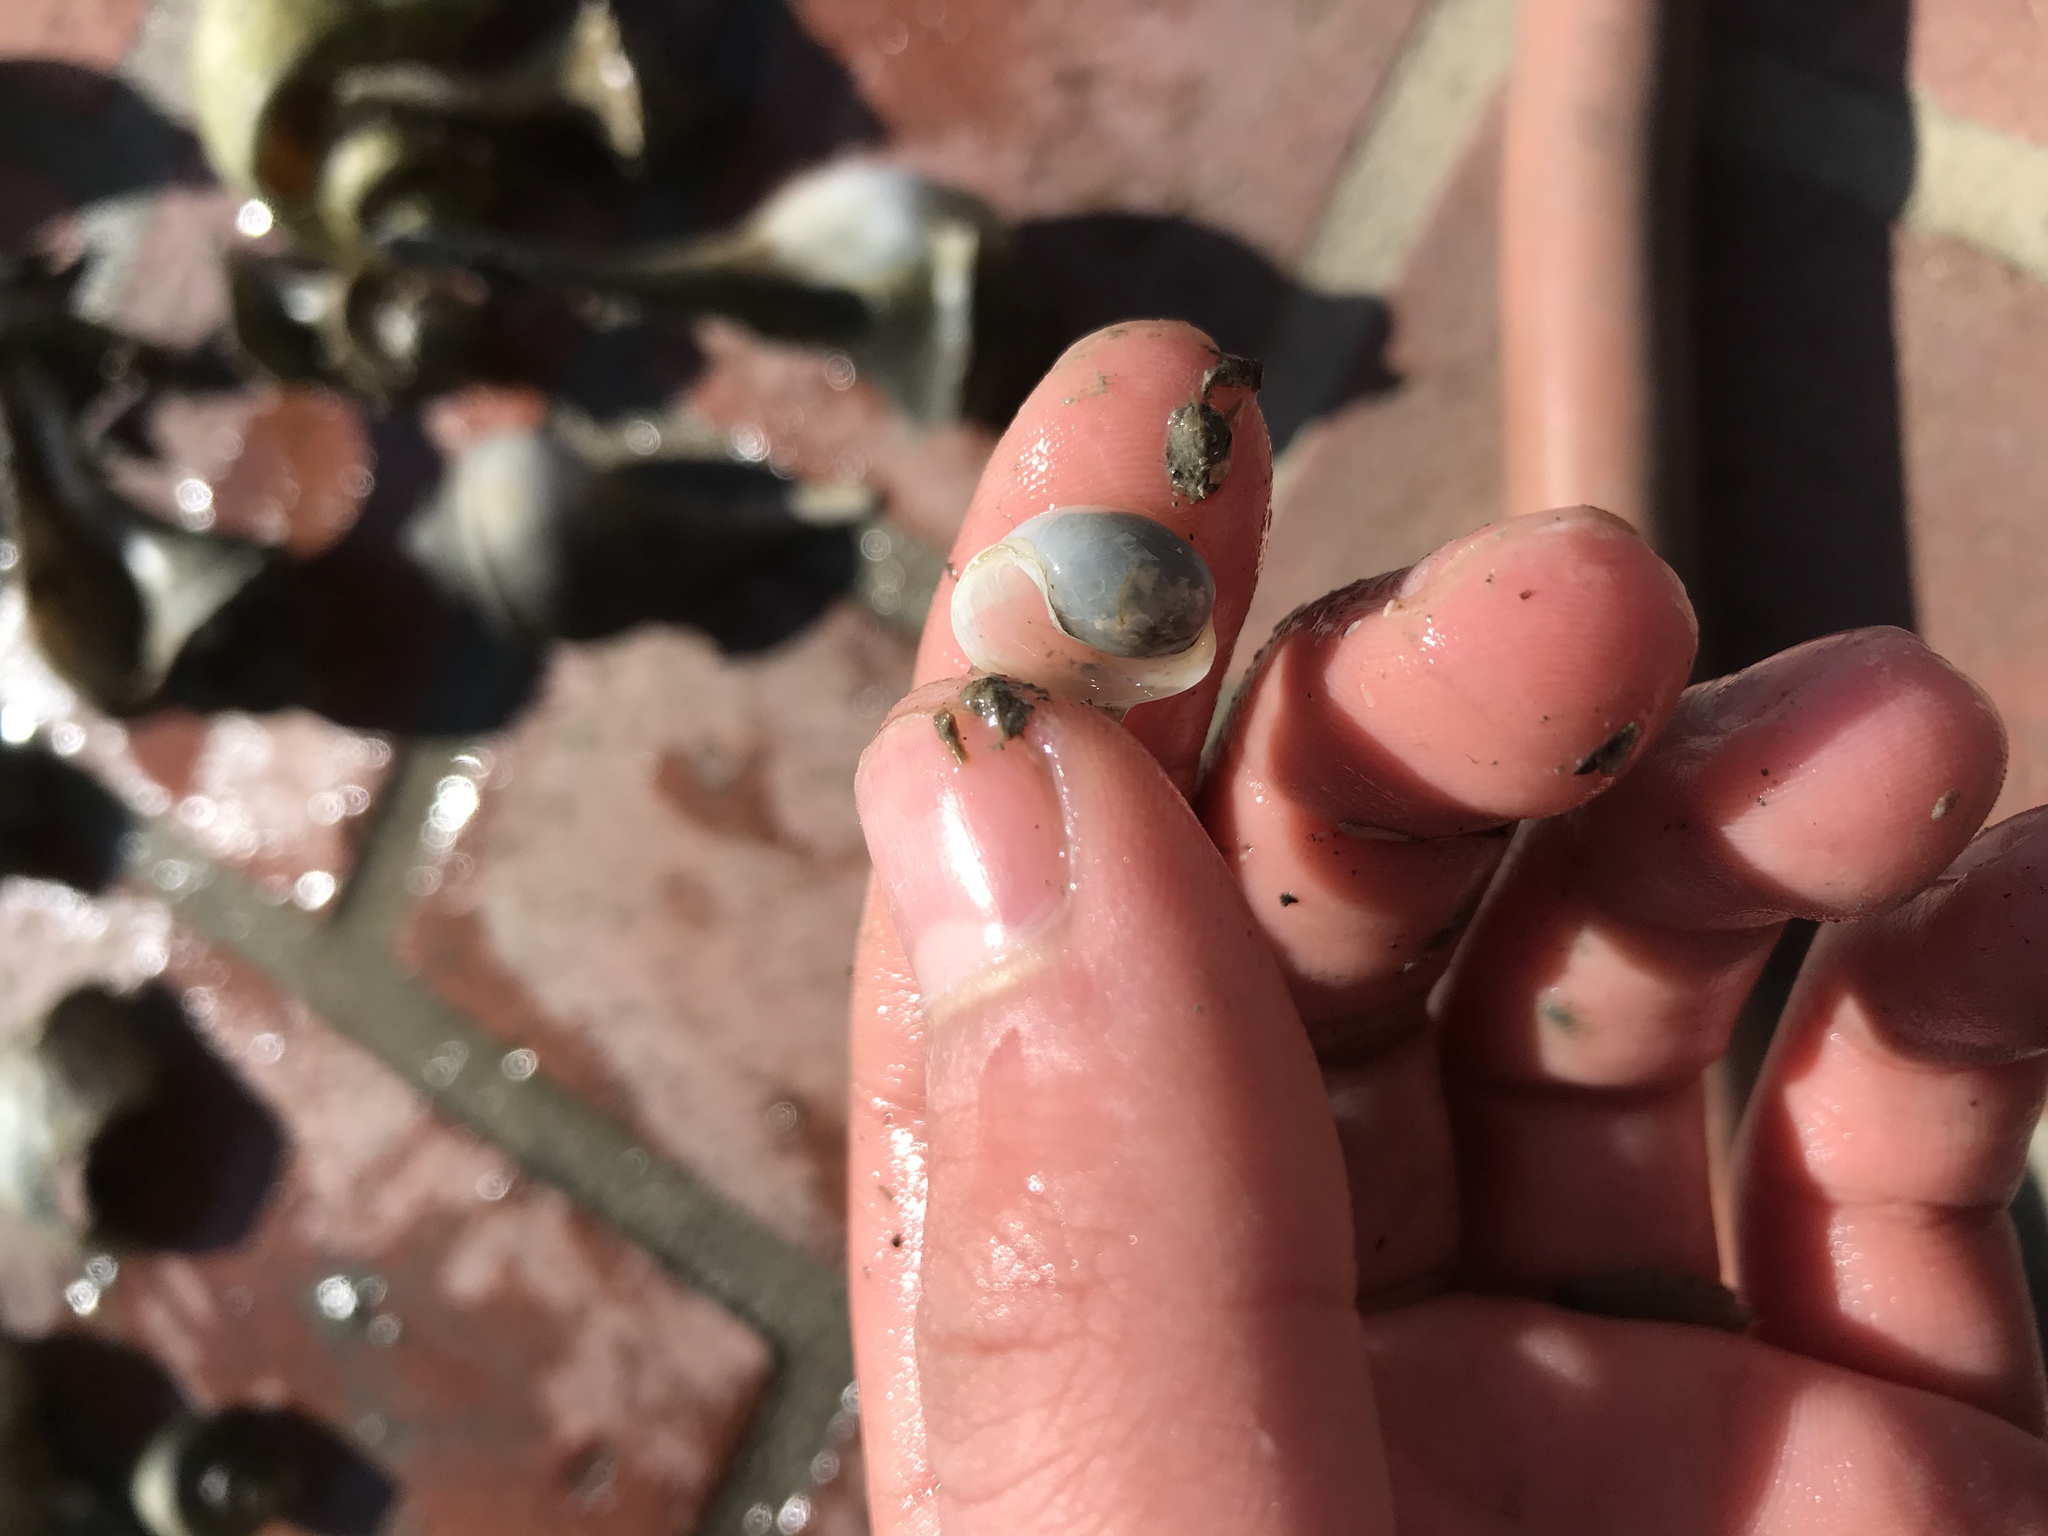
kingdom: Animalia
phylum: Mollusca
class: Gastropoda
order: Cephalaspidea
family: Haminoeidae
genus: Haloa
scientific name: Haloa japonica
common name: Japanese bubble snail
